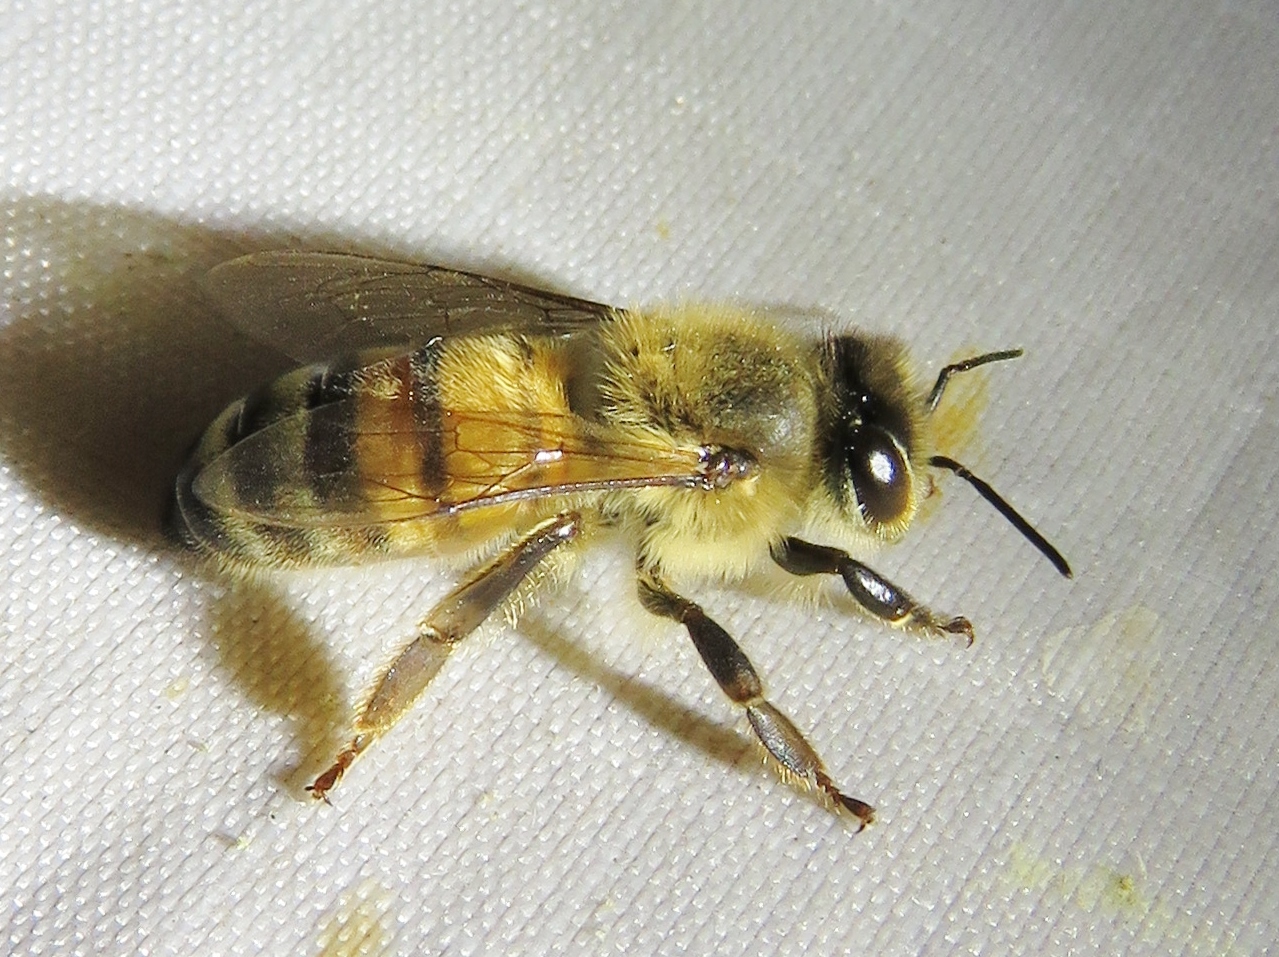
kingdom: Animalia
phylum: Arthropoda
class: Insecta
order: Hymenoptera
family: Apidae
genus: Apis
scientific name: Apis mellifera
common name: Honey bee
